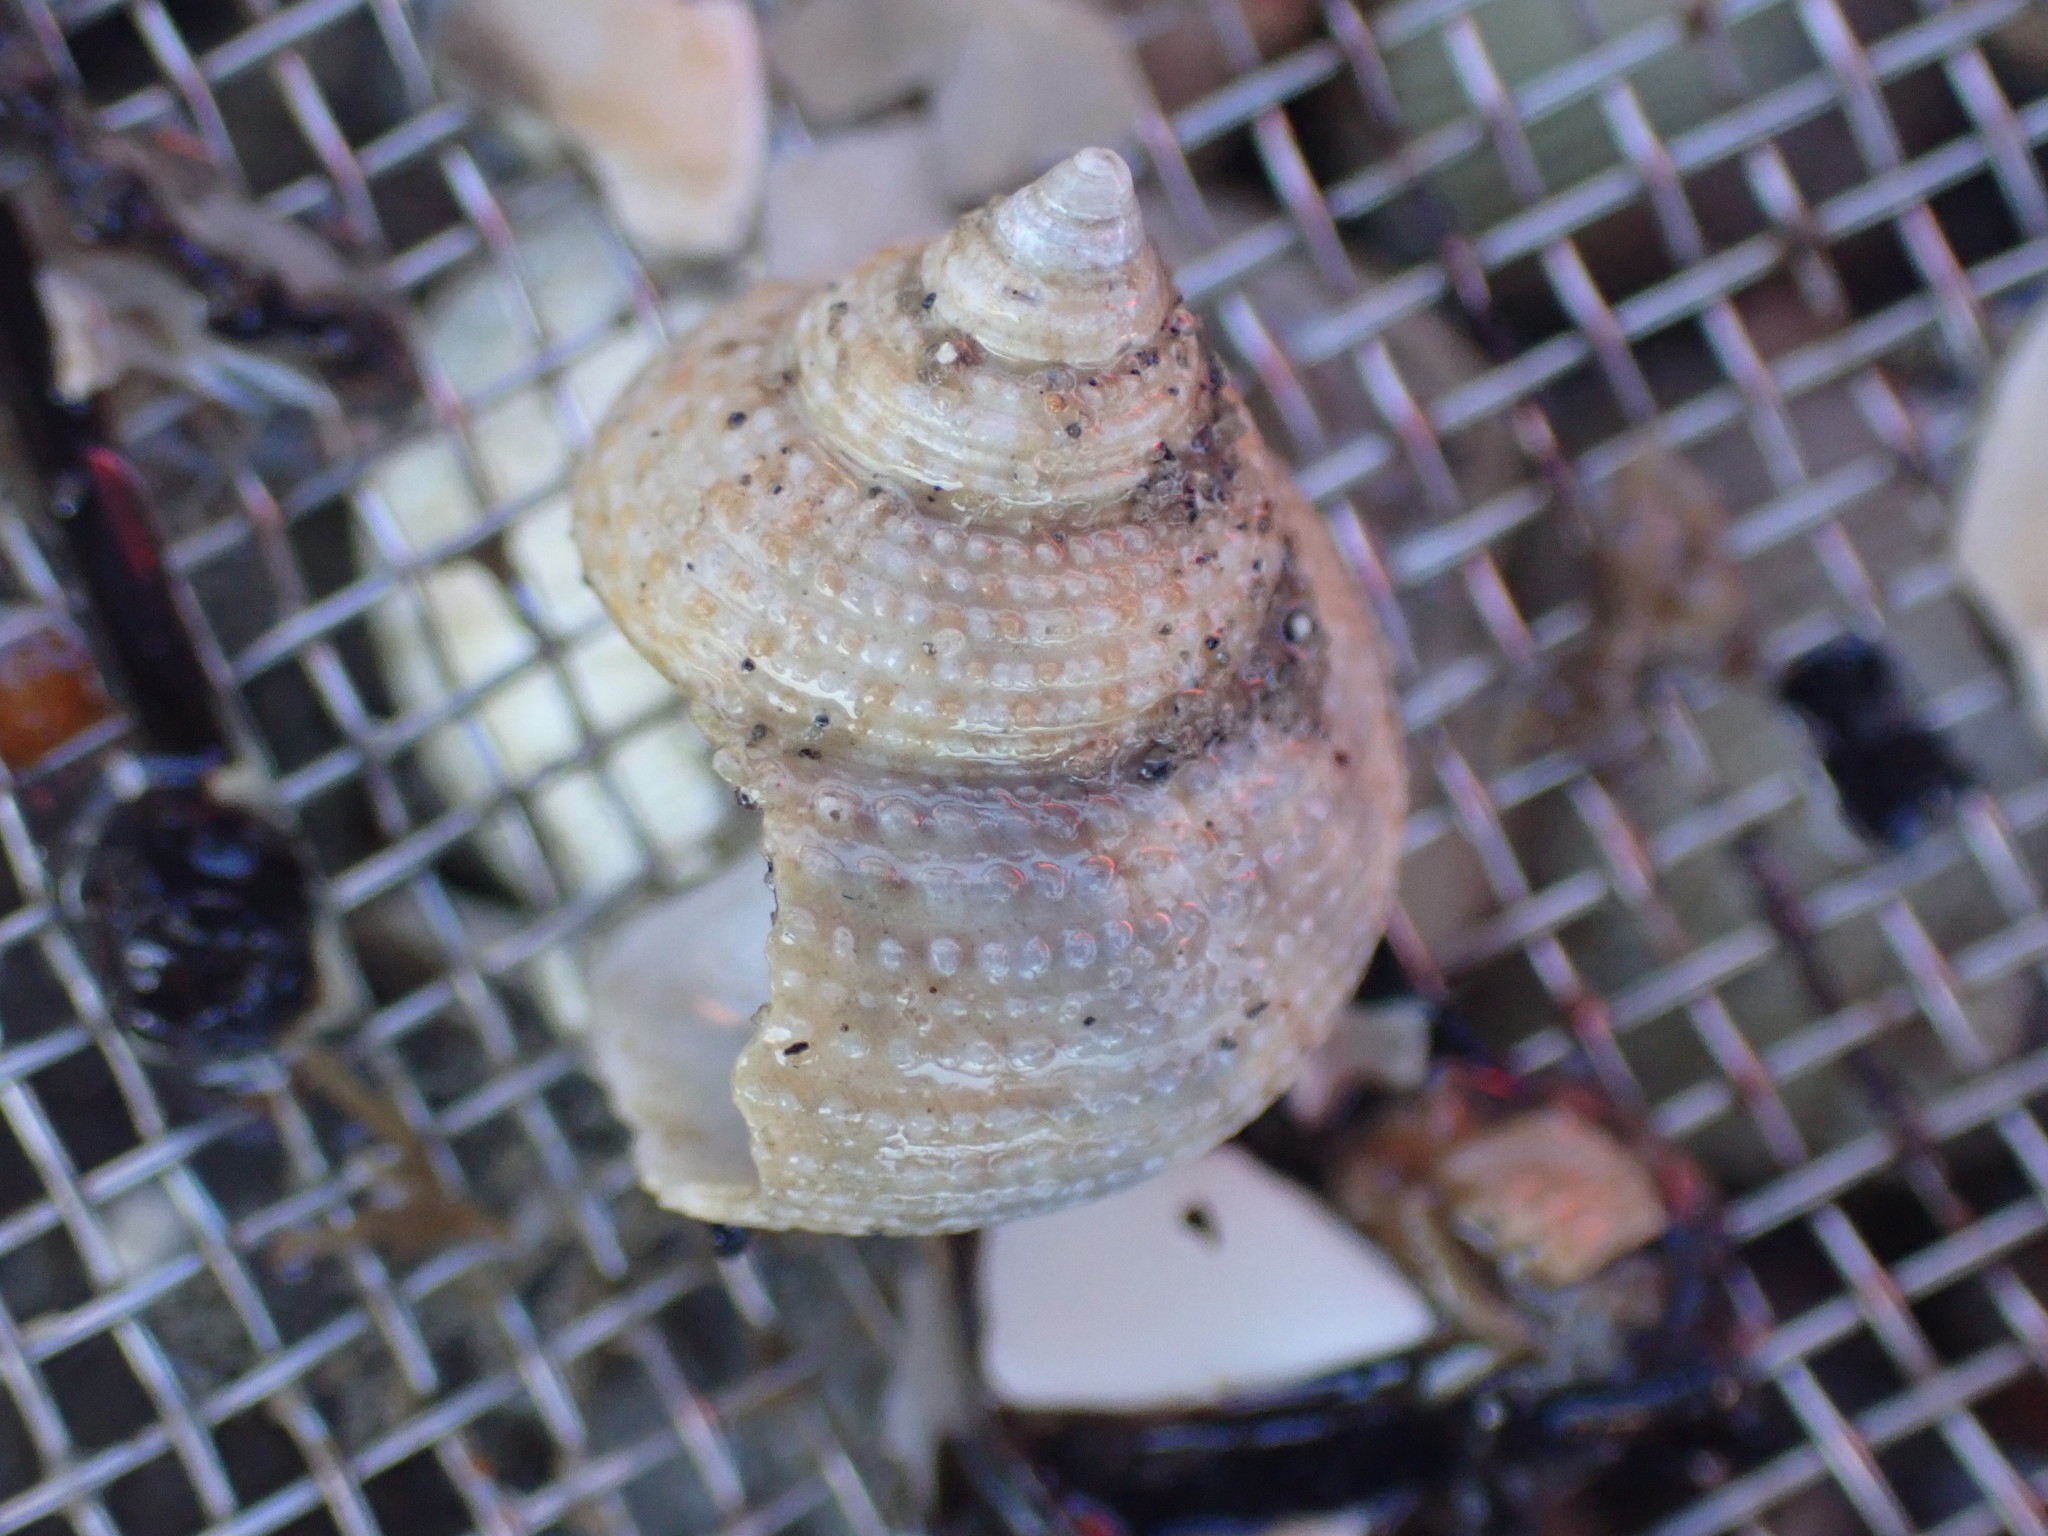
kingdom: Animalia
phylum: Mollusca
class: Gastropoda
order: Trochida
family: Calliostomatidae
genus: Maurea
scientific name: Maurea punctulata
